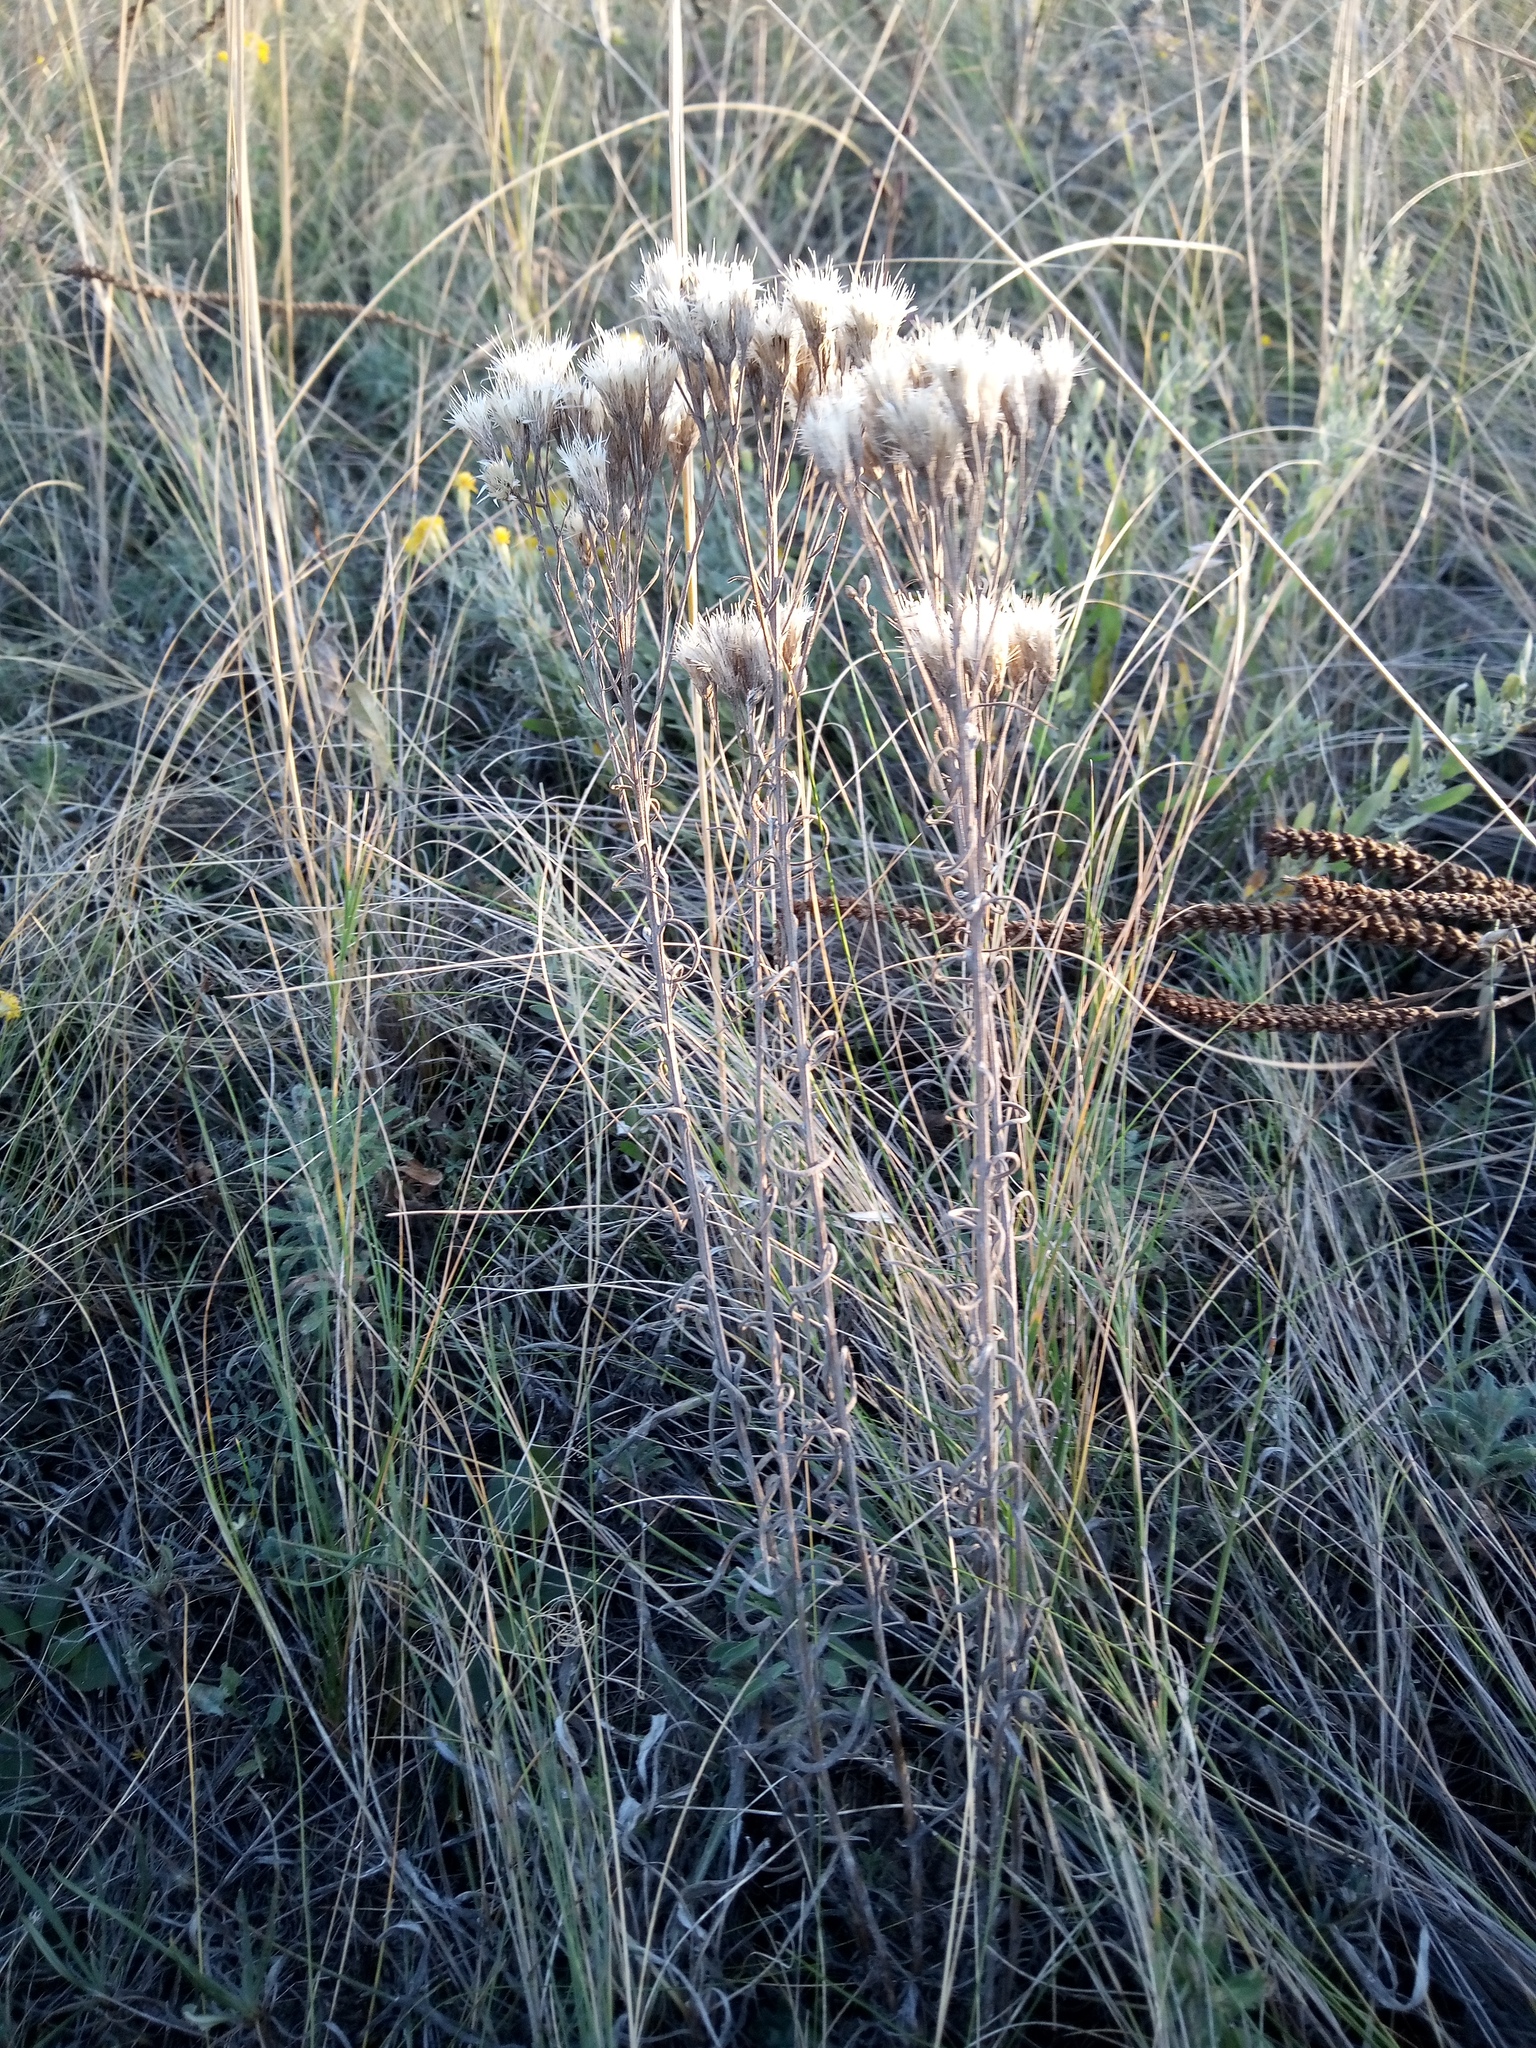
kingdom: Plantae
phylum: Tracheophyta
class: Magnoliopsida
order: Asterales
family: Asteraceae
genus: Jurinea
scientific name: Jurinea multiflora
